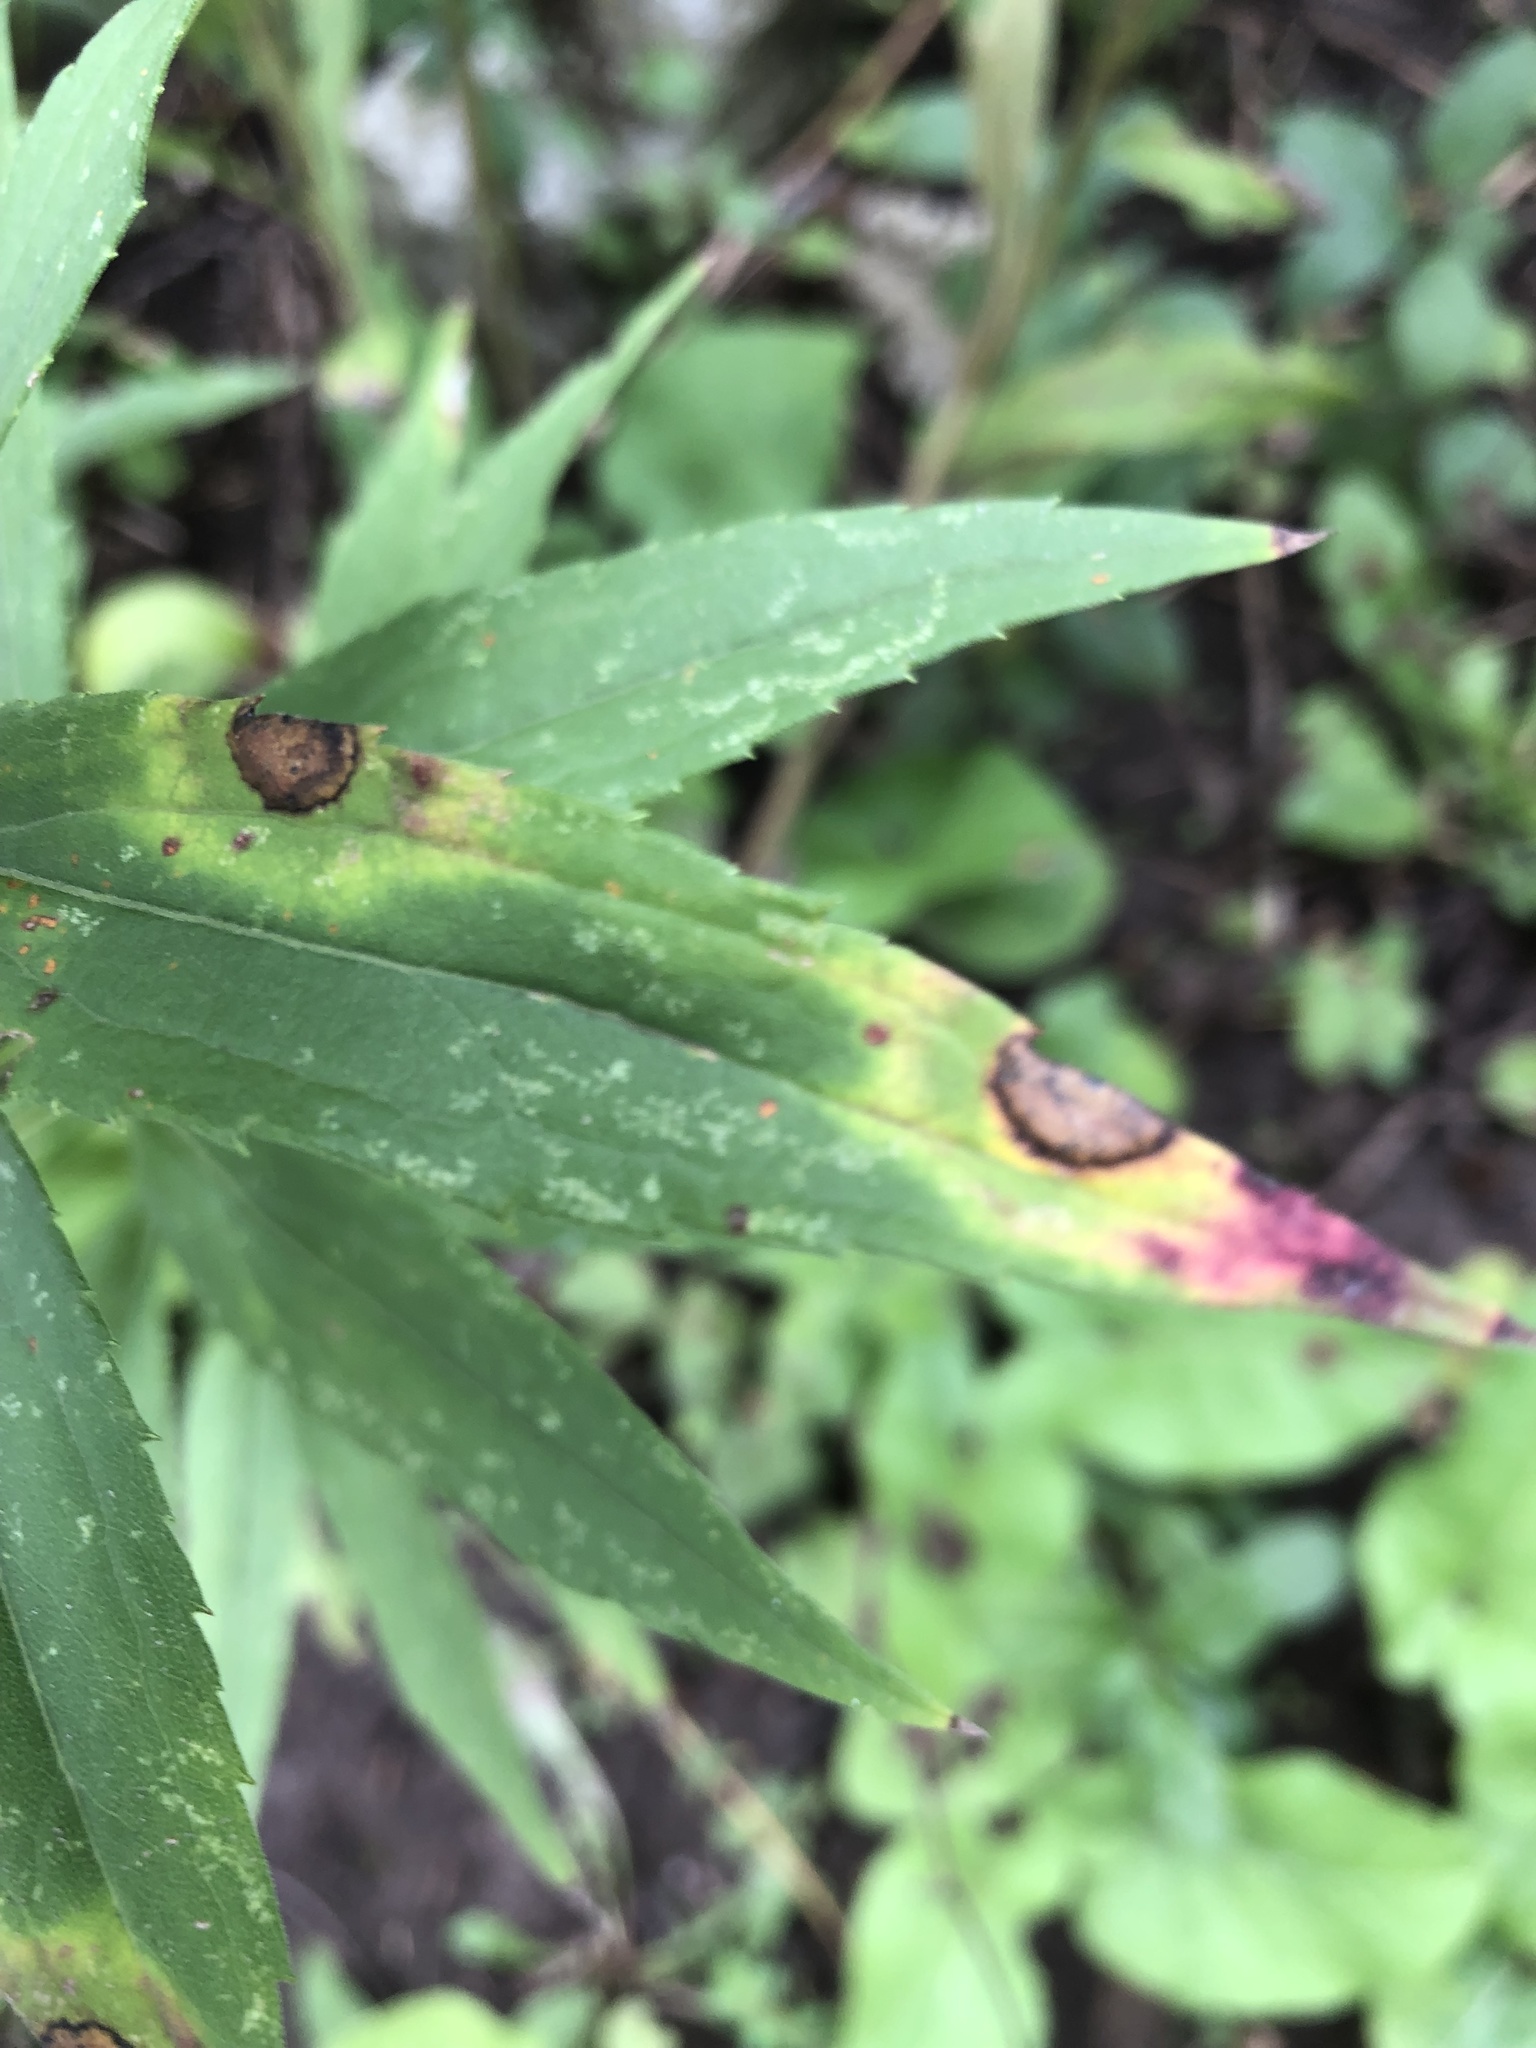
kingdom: Animalia
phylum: Arthropoda
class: Insecta
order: Diptera
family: Cecidomyiidae
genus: Asteromyia
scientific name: Asteromyia carbonifera
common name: Carbonifera goldenrod gall midge
